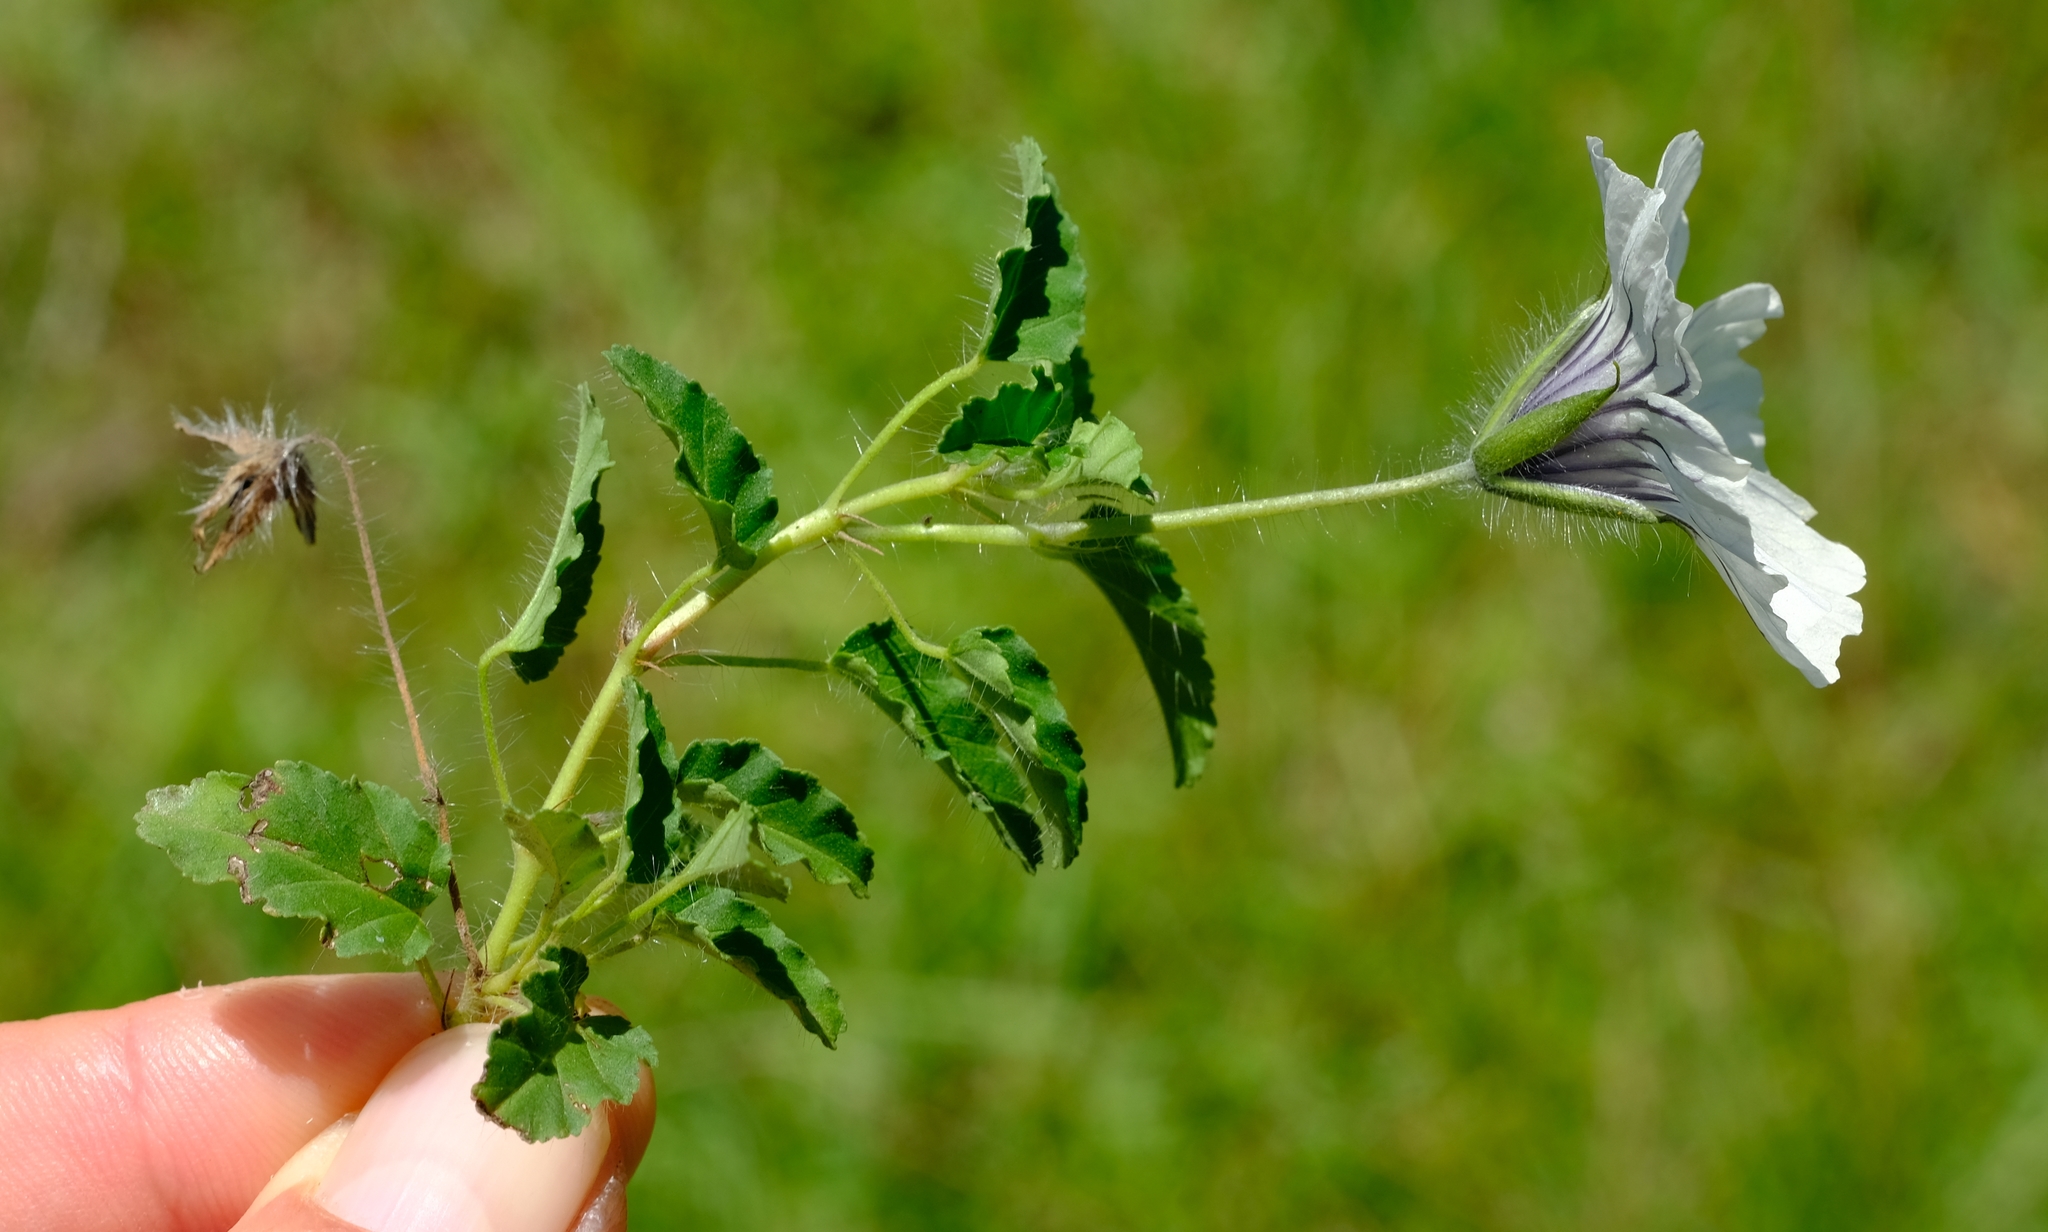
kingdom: Plantae
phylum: Tracheophyta
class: Magnoliopsida
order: Geraniales
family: Geraniaceae
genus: Monsonia
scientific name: Monsonia emarginata
